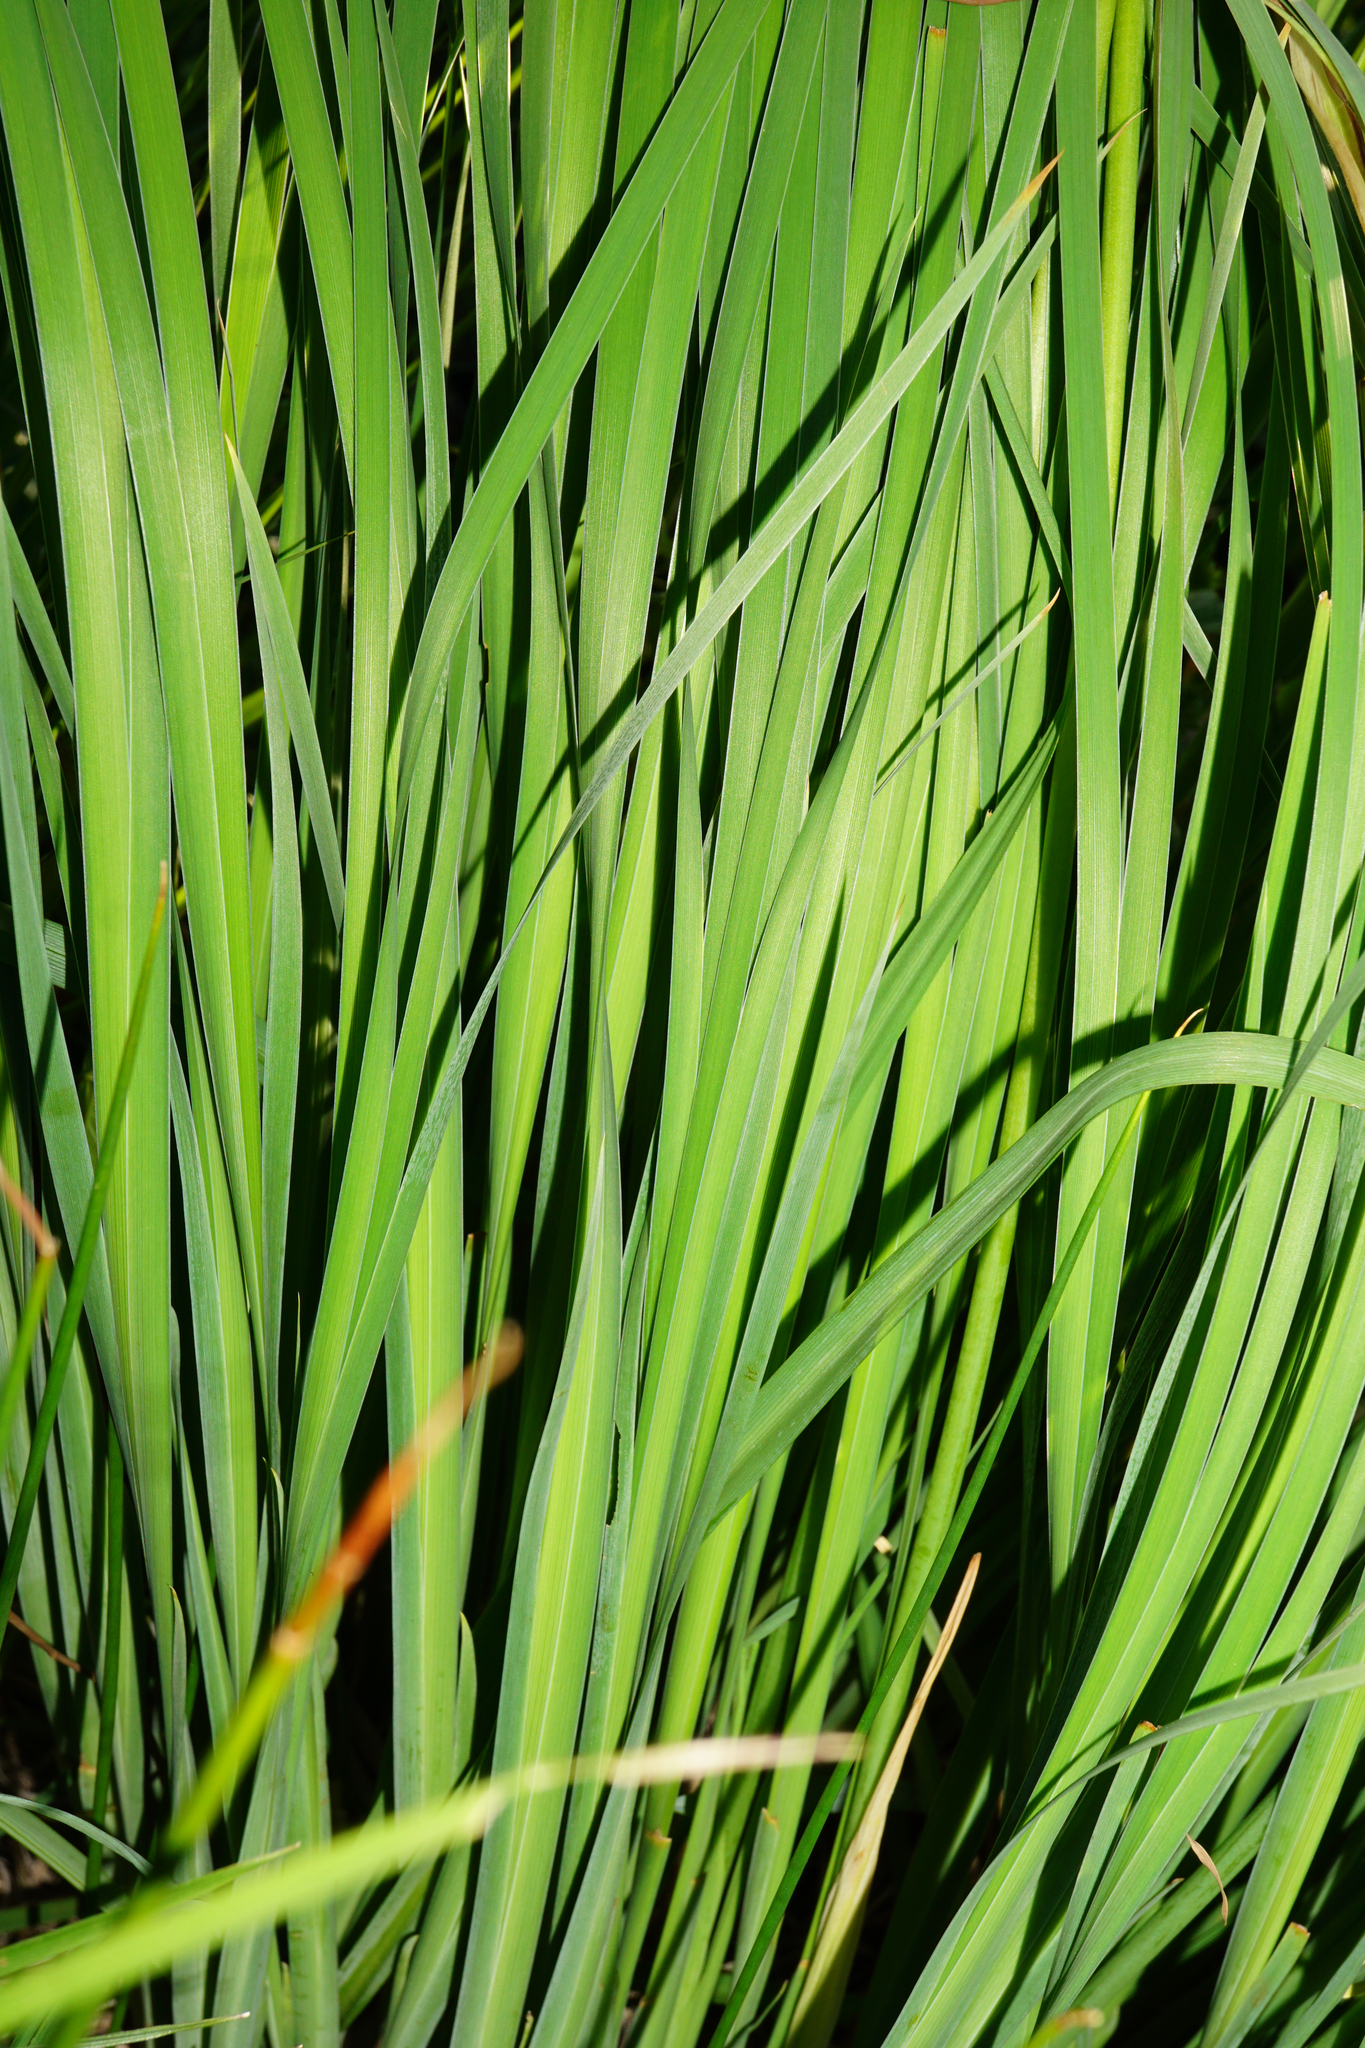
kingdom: Plantae
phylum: Tracheophyta
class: Liliopsida
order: Asparagales
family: Iridaceae
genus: Iris
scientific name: Iris sibirica
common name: Siberian iris
